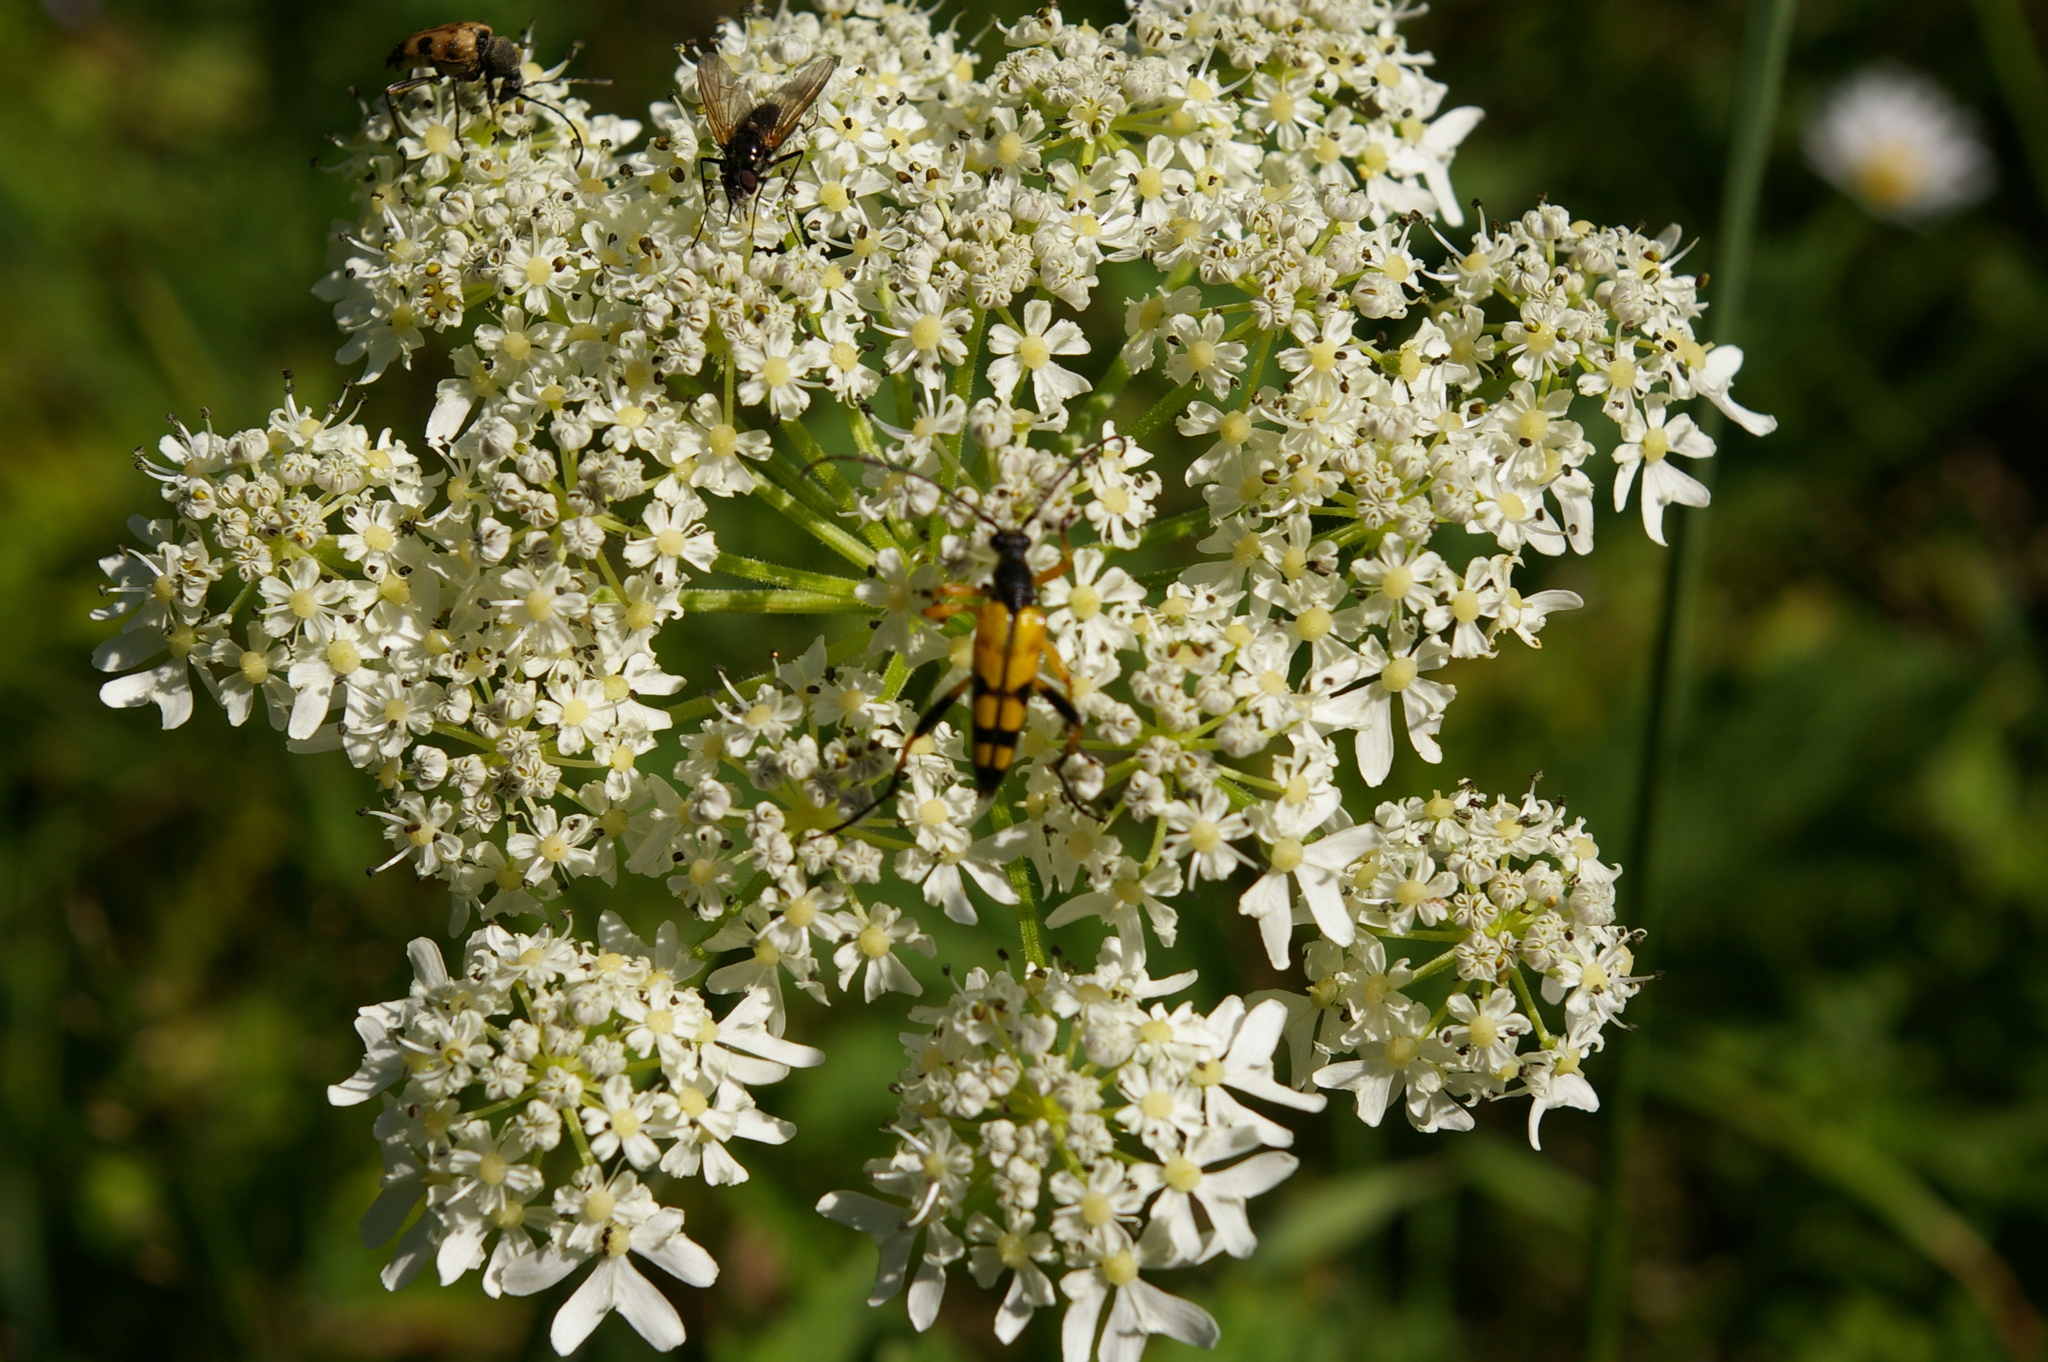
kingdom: Animalia
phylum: Arthropoda
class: Insecta
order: Coleoptera
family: Cerambycidae
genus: Rutpela
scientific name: Rutpela maculata
